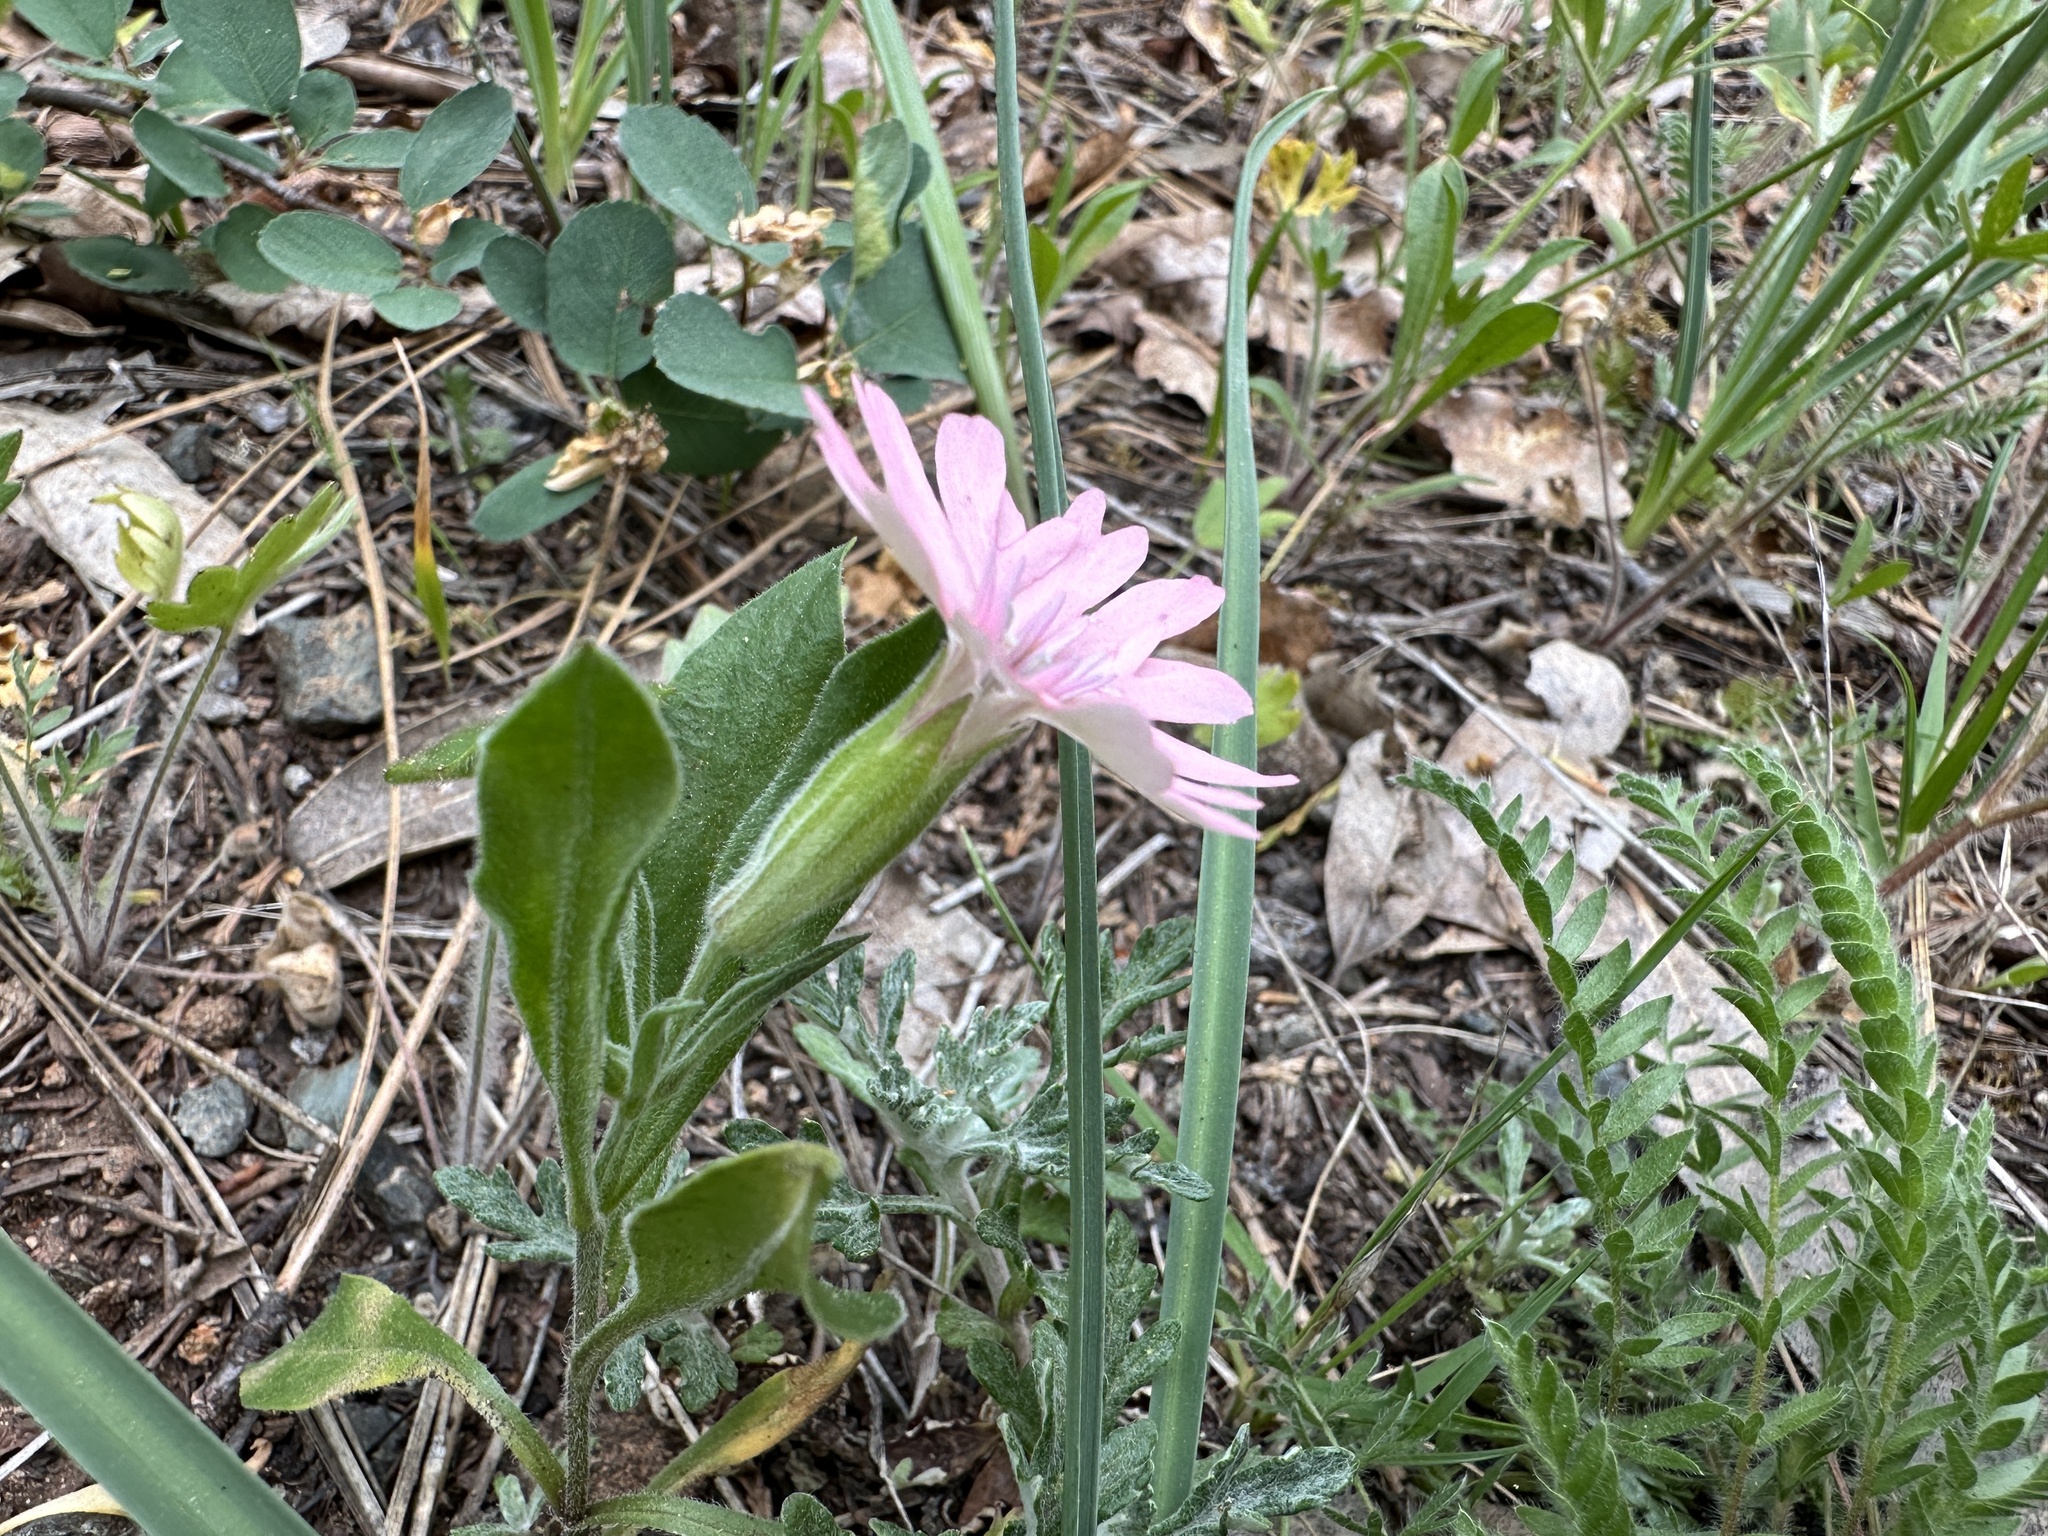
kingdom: Plantae
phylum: Tracheophyta
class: Magnoliopsida
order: Caryophyllales
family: Caryophyllaceae
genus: Silene
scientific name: Silene hookeri
